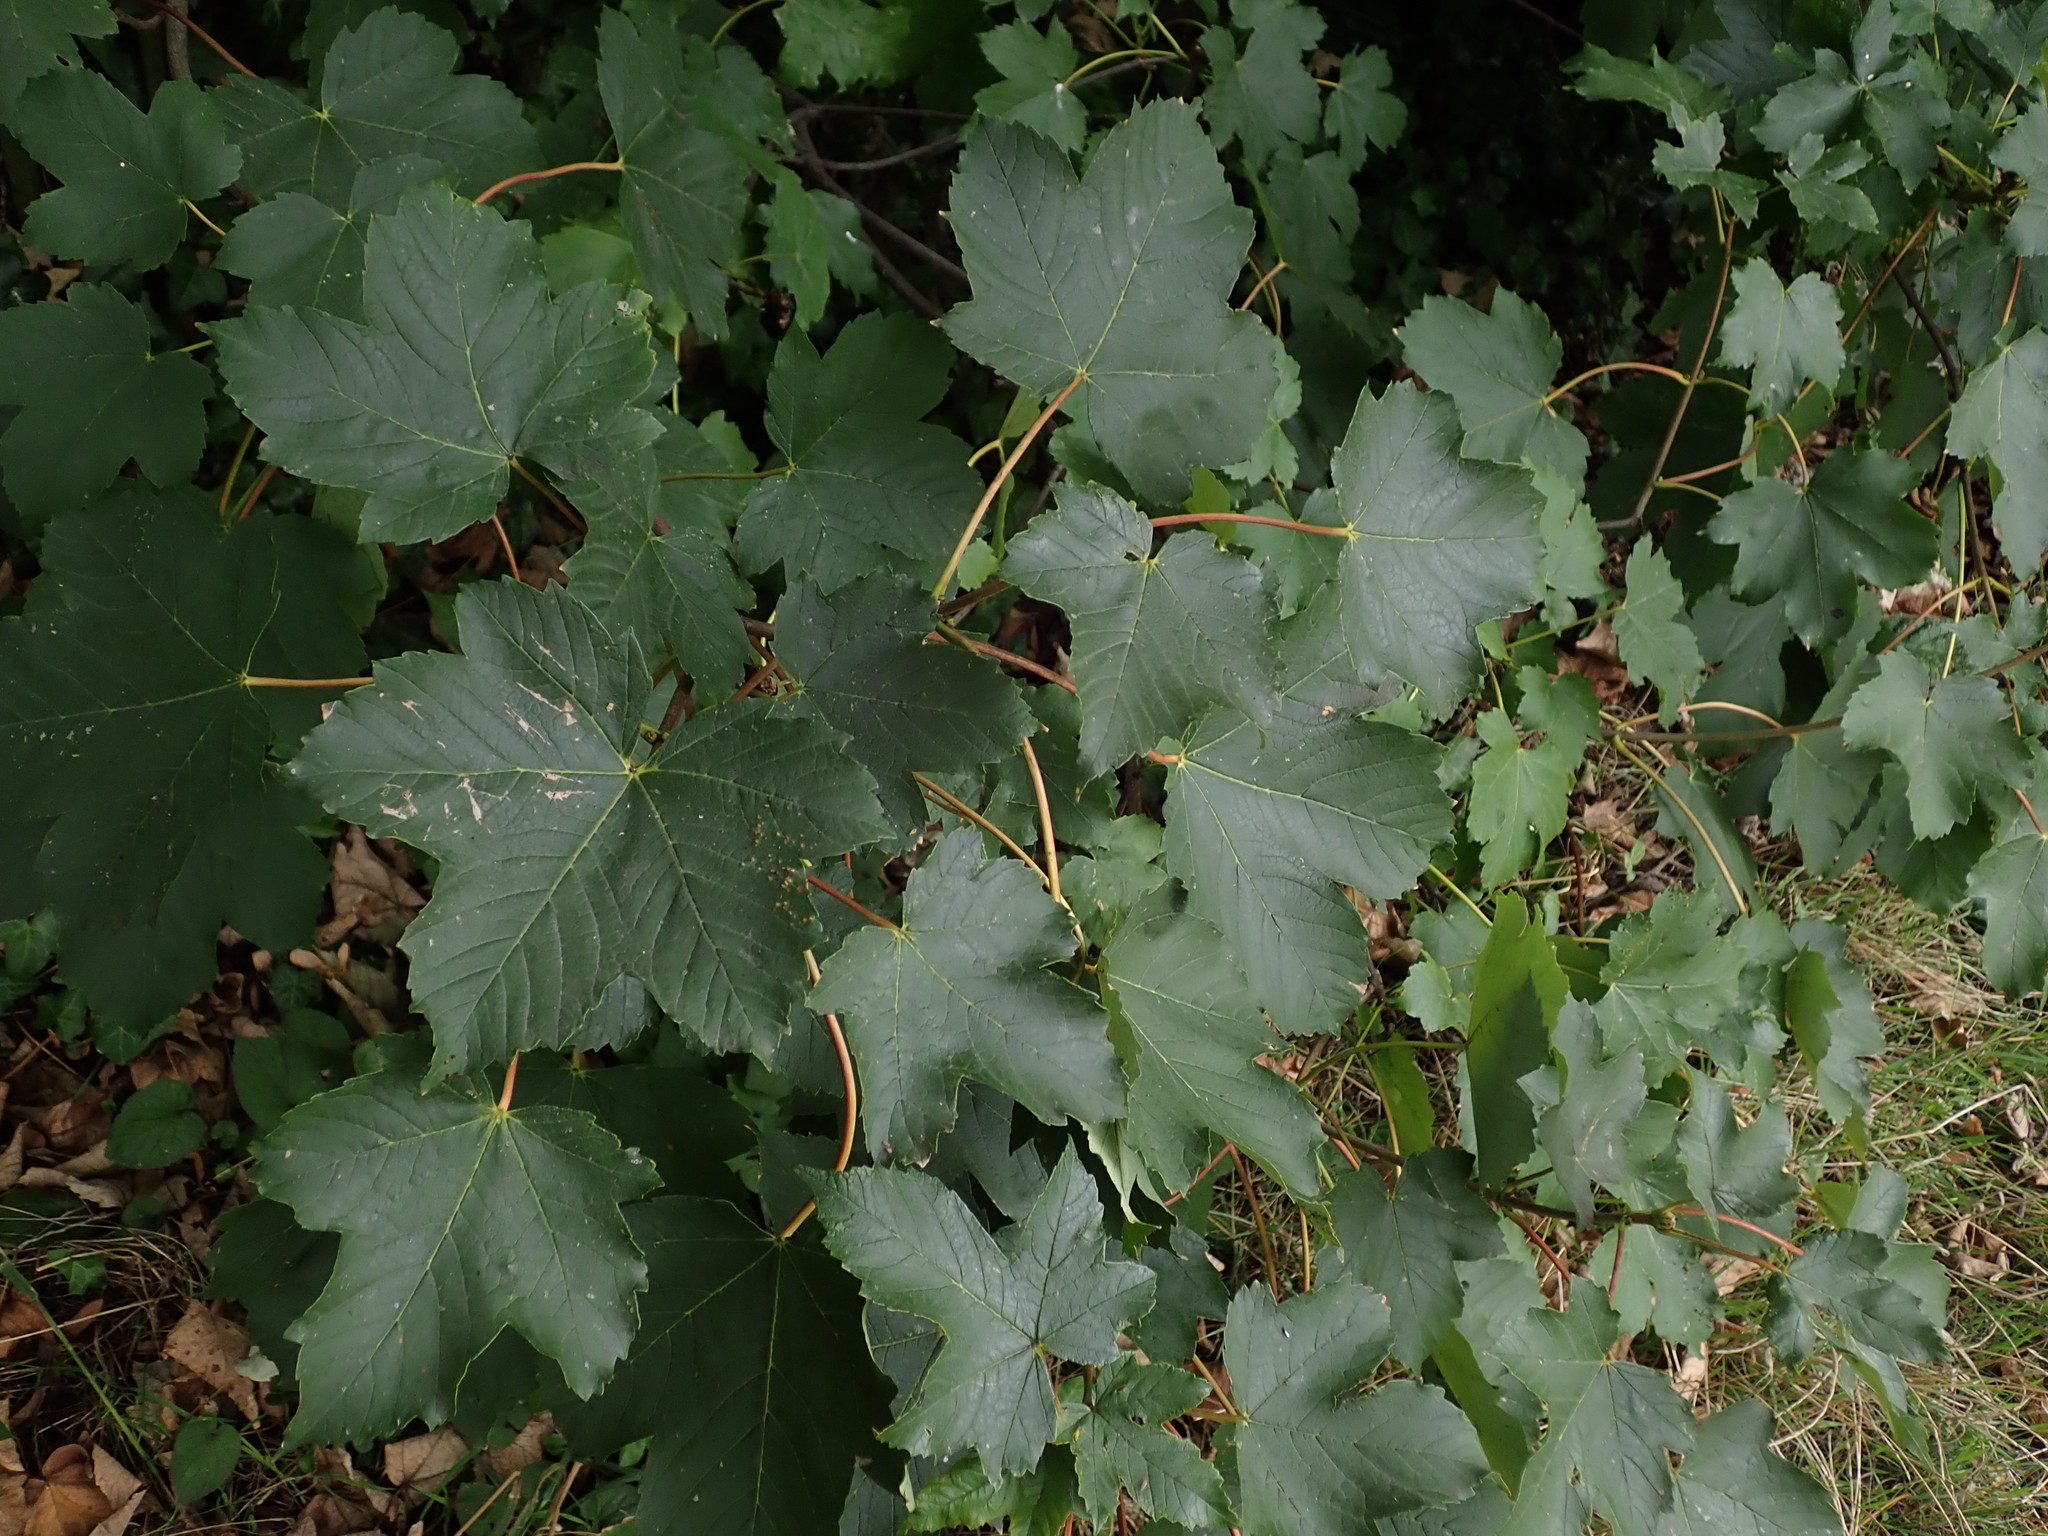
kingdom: Plantae
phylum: Tracheophyta
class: Magnoliopsida
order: Sapindales
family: Sapindaceae
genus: Acer
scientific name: Acer pseudoplatanus
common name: Sycamore
